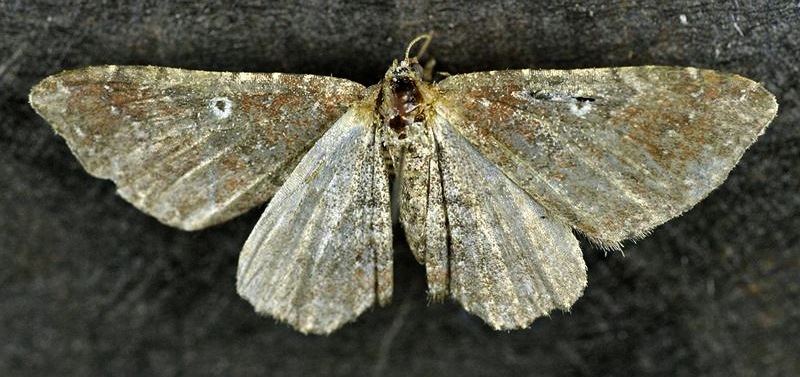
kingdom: Animalia
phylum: Arthropoda
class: Insecta
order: Lepidoptera
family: Geometridae
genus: Orthonama
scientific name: Orthonama obstipata
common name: The gem
